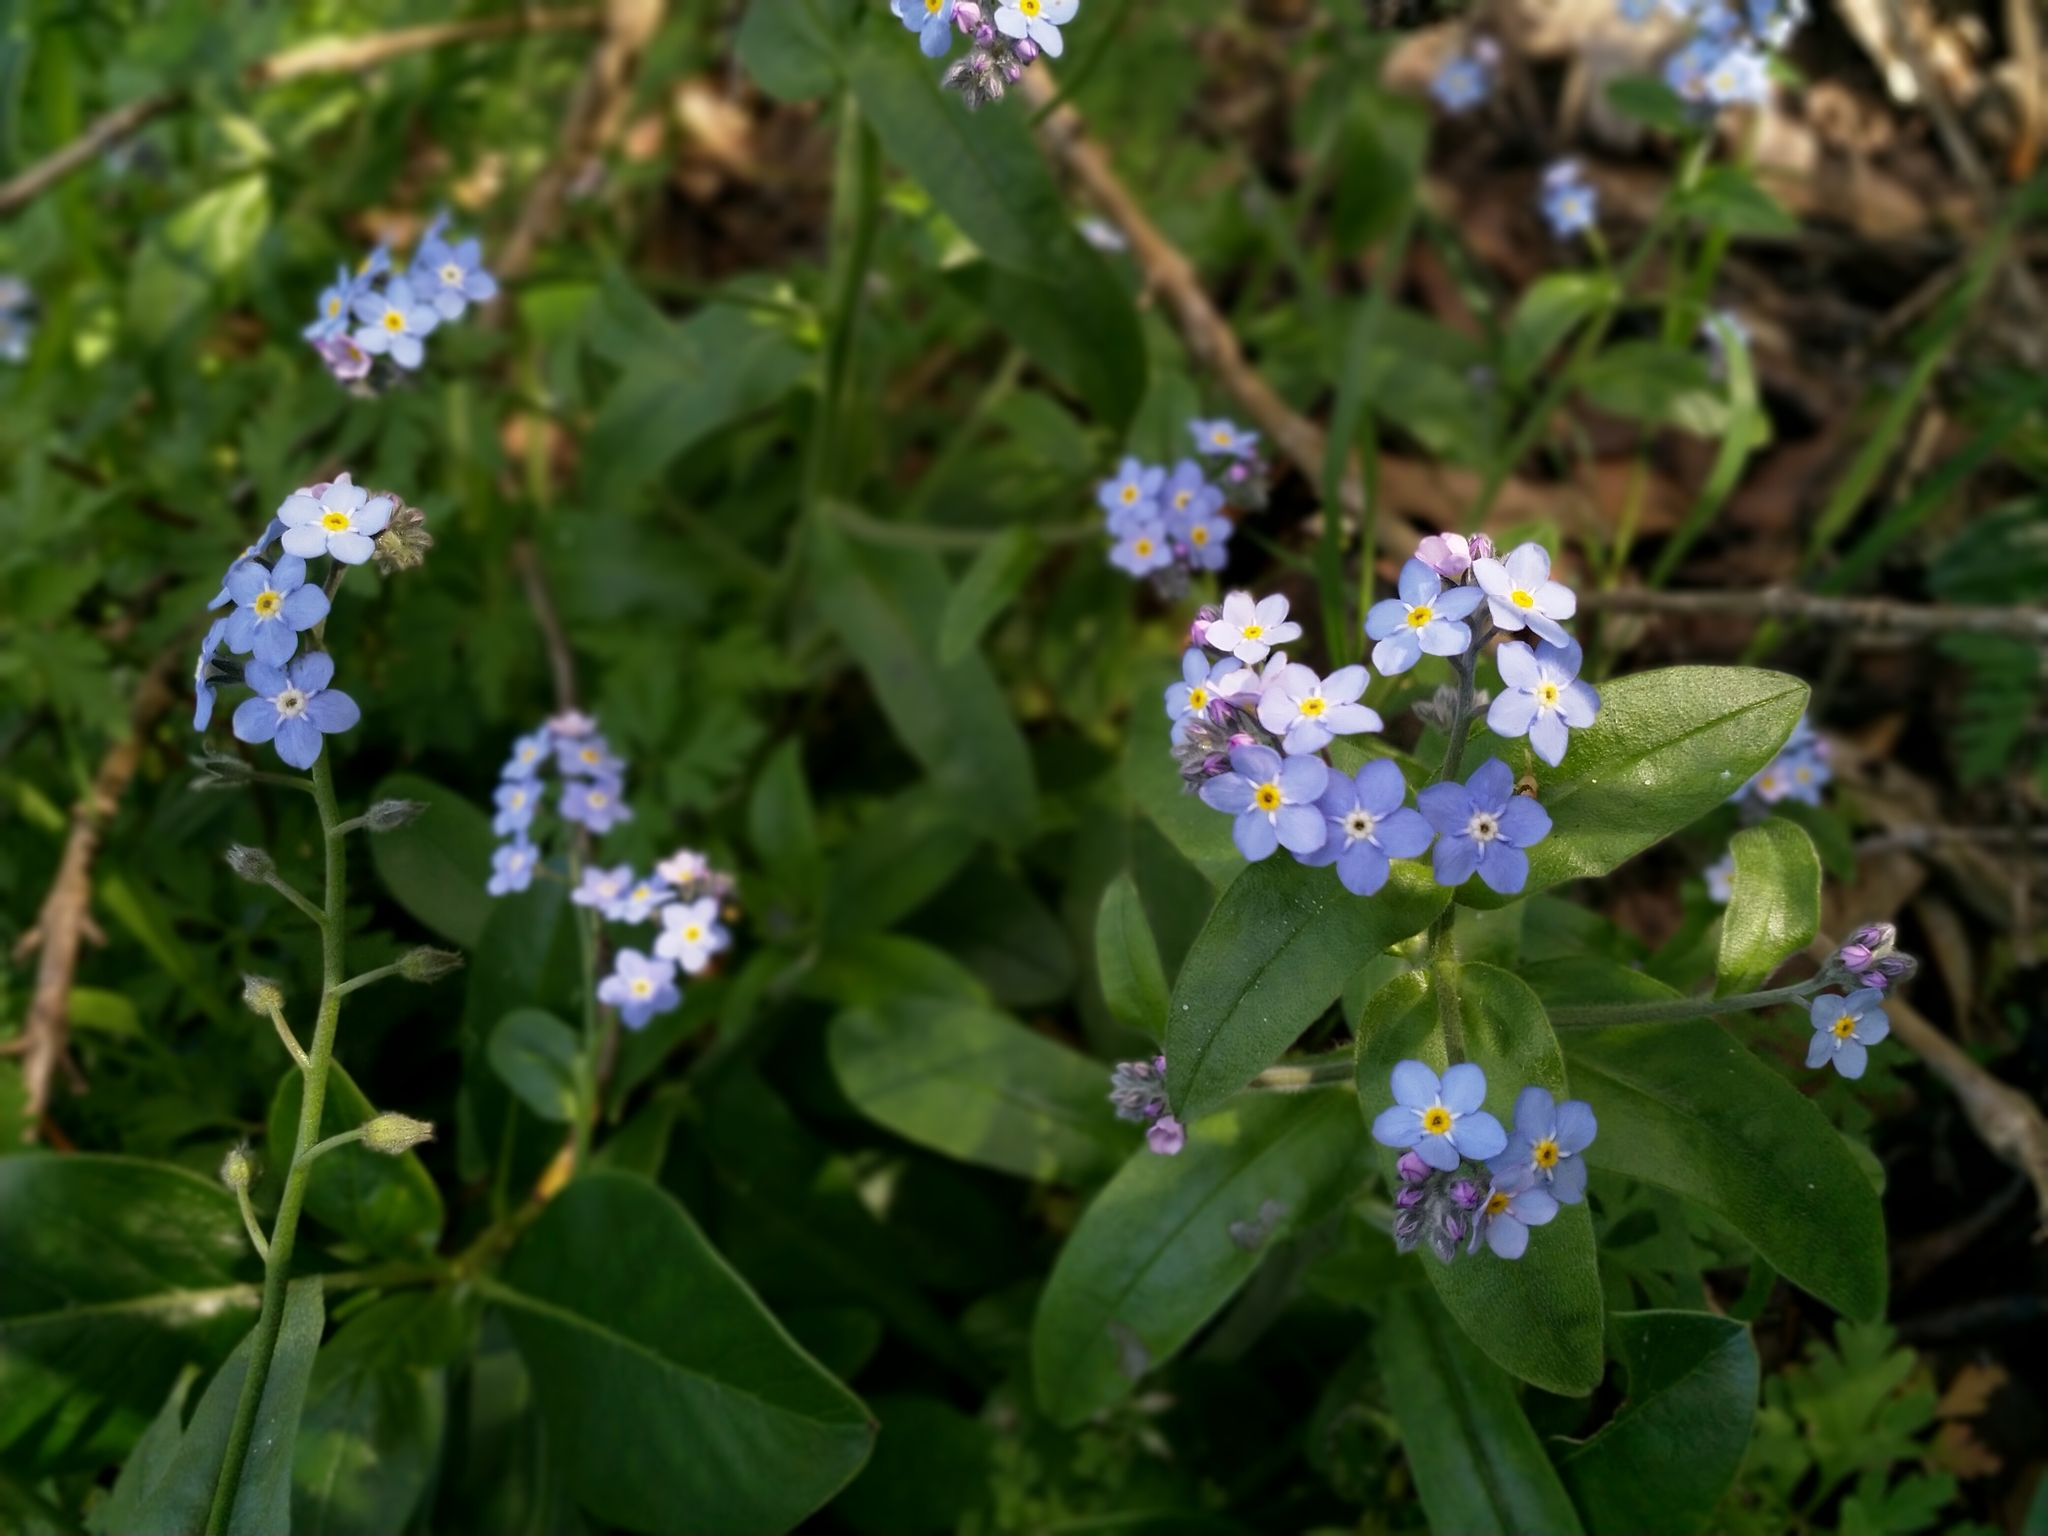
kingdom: Plantae
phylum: Tracheophyta
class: Magnoliopsida
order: Boraginales
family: Boraginaceae
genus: Myosotis
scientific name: Myosotis sylvatica
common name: Wood forget-me-not
